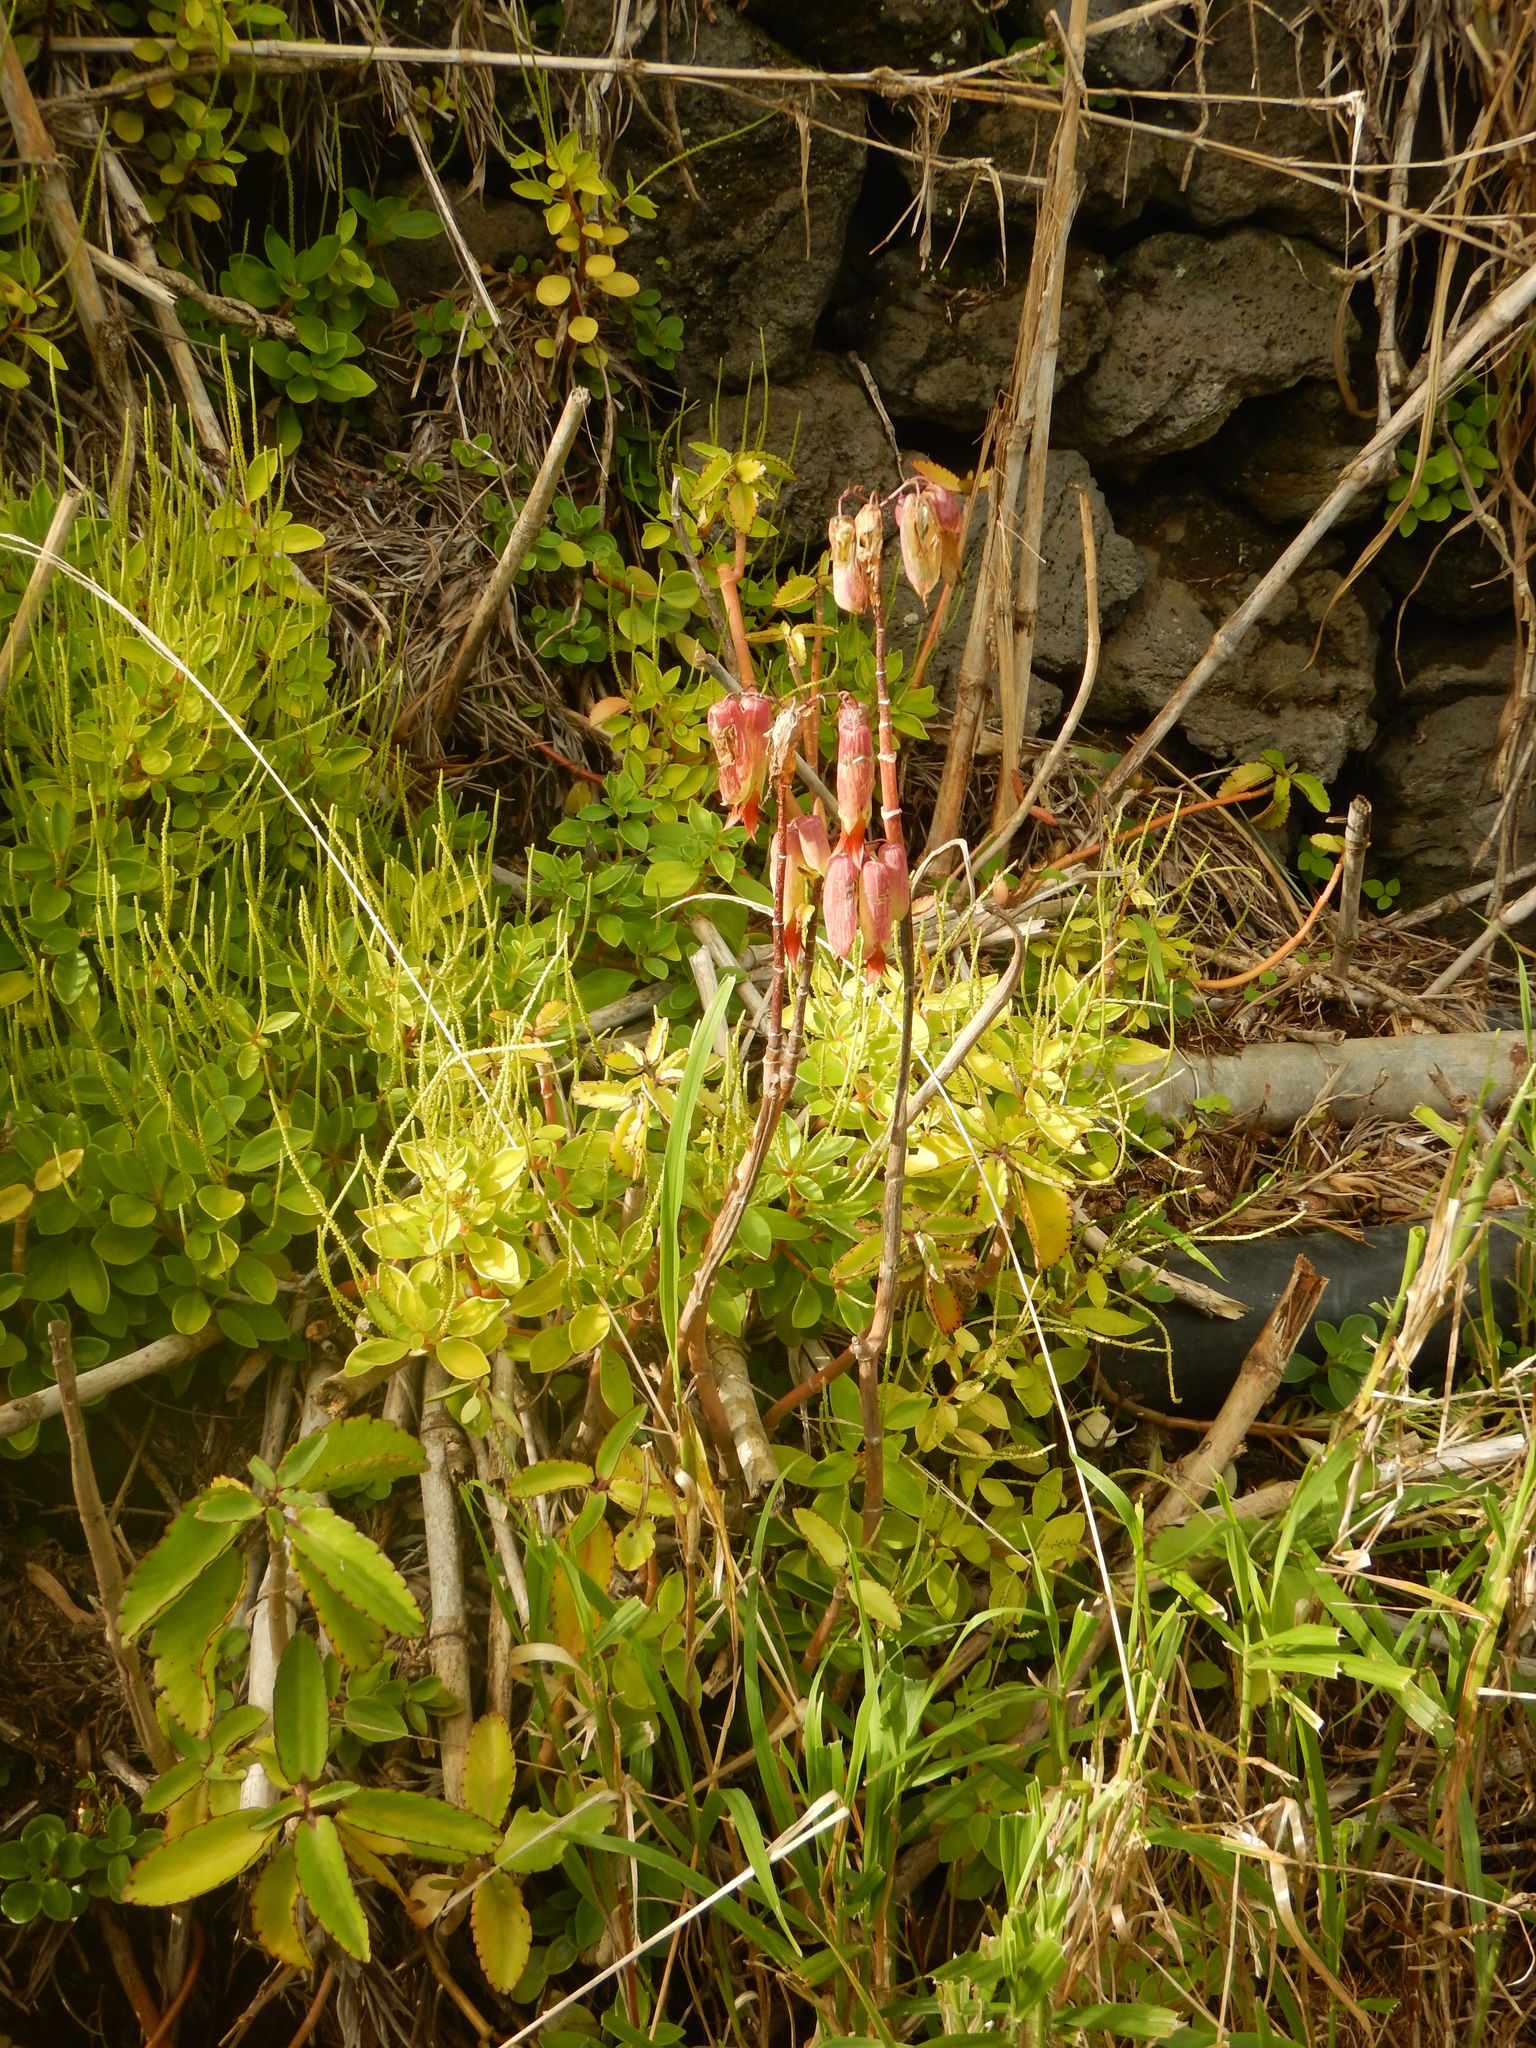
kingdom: Plantae
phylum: Tracheophyta
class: Magnoliopsida
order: Saxifragales
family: Crassulaceae
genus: Kalanchoe
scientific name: Kalanchoe pinnata
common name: Cathedral bells
